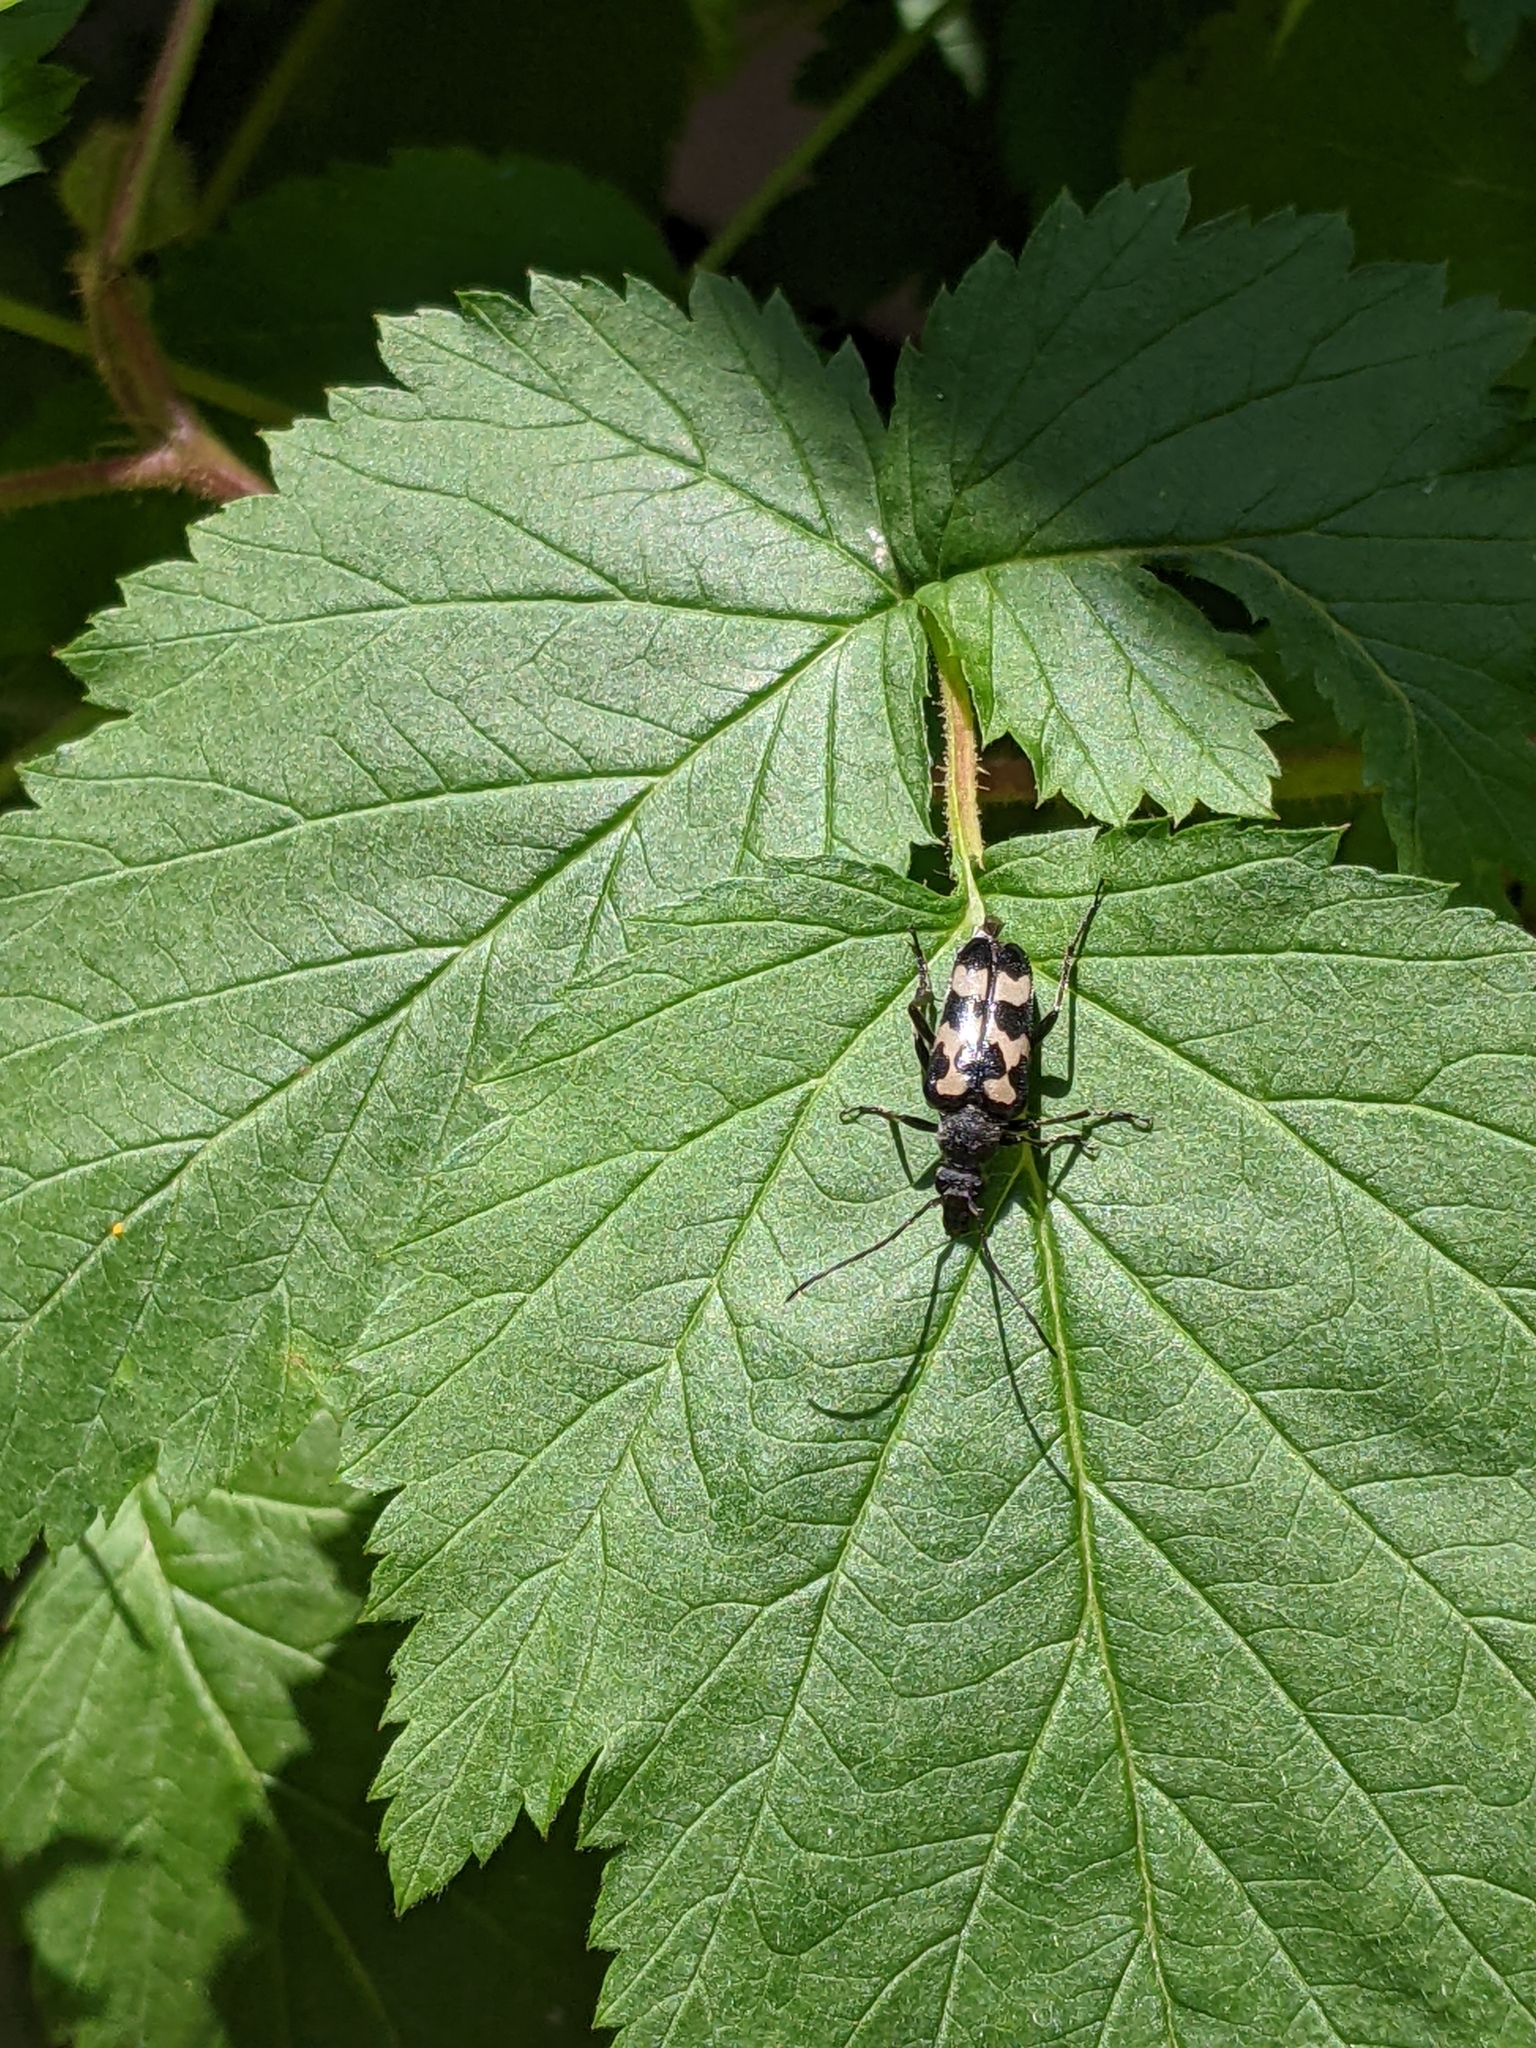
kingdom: Animalia
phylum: Arthropoda
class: Insecta
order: Coleoptera
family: Cerambycidae
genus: Judolia
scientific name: Judolia montivagans
